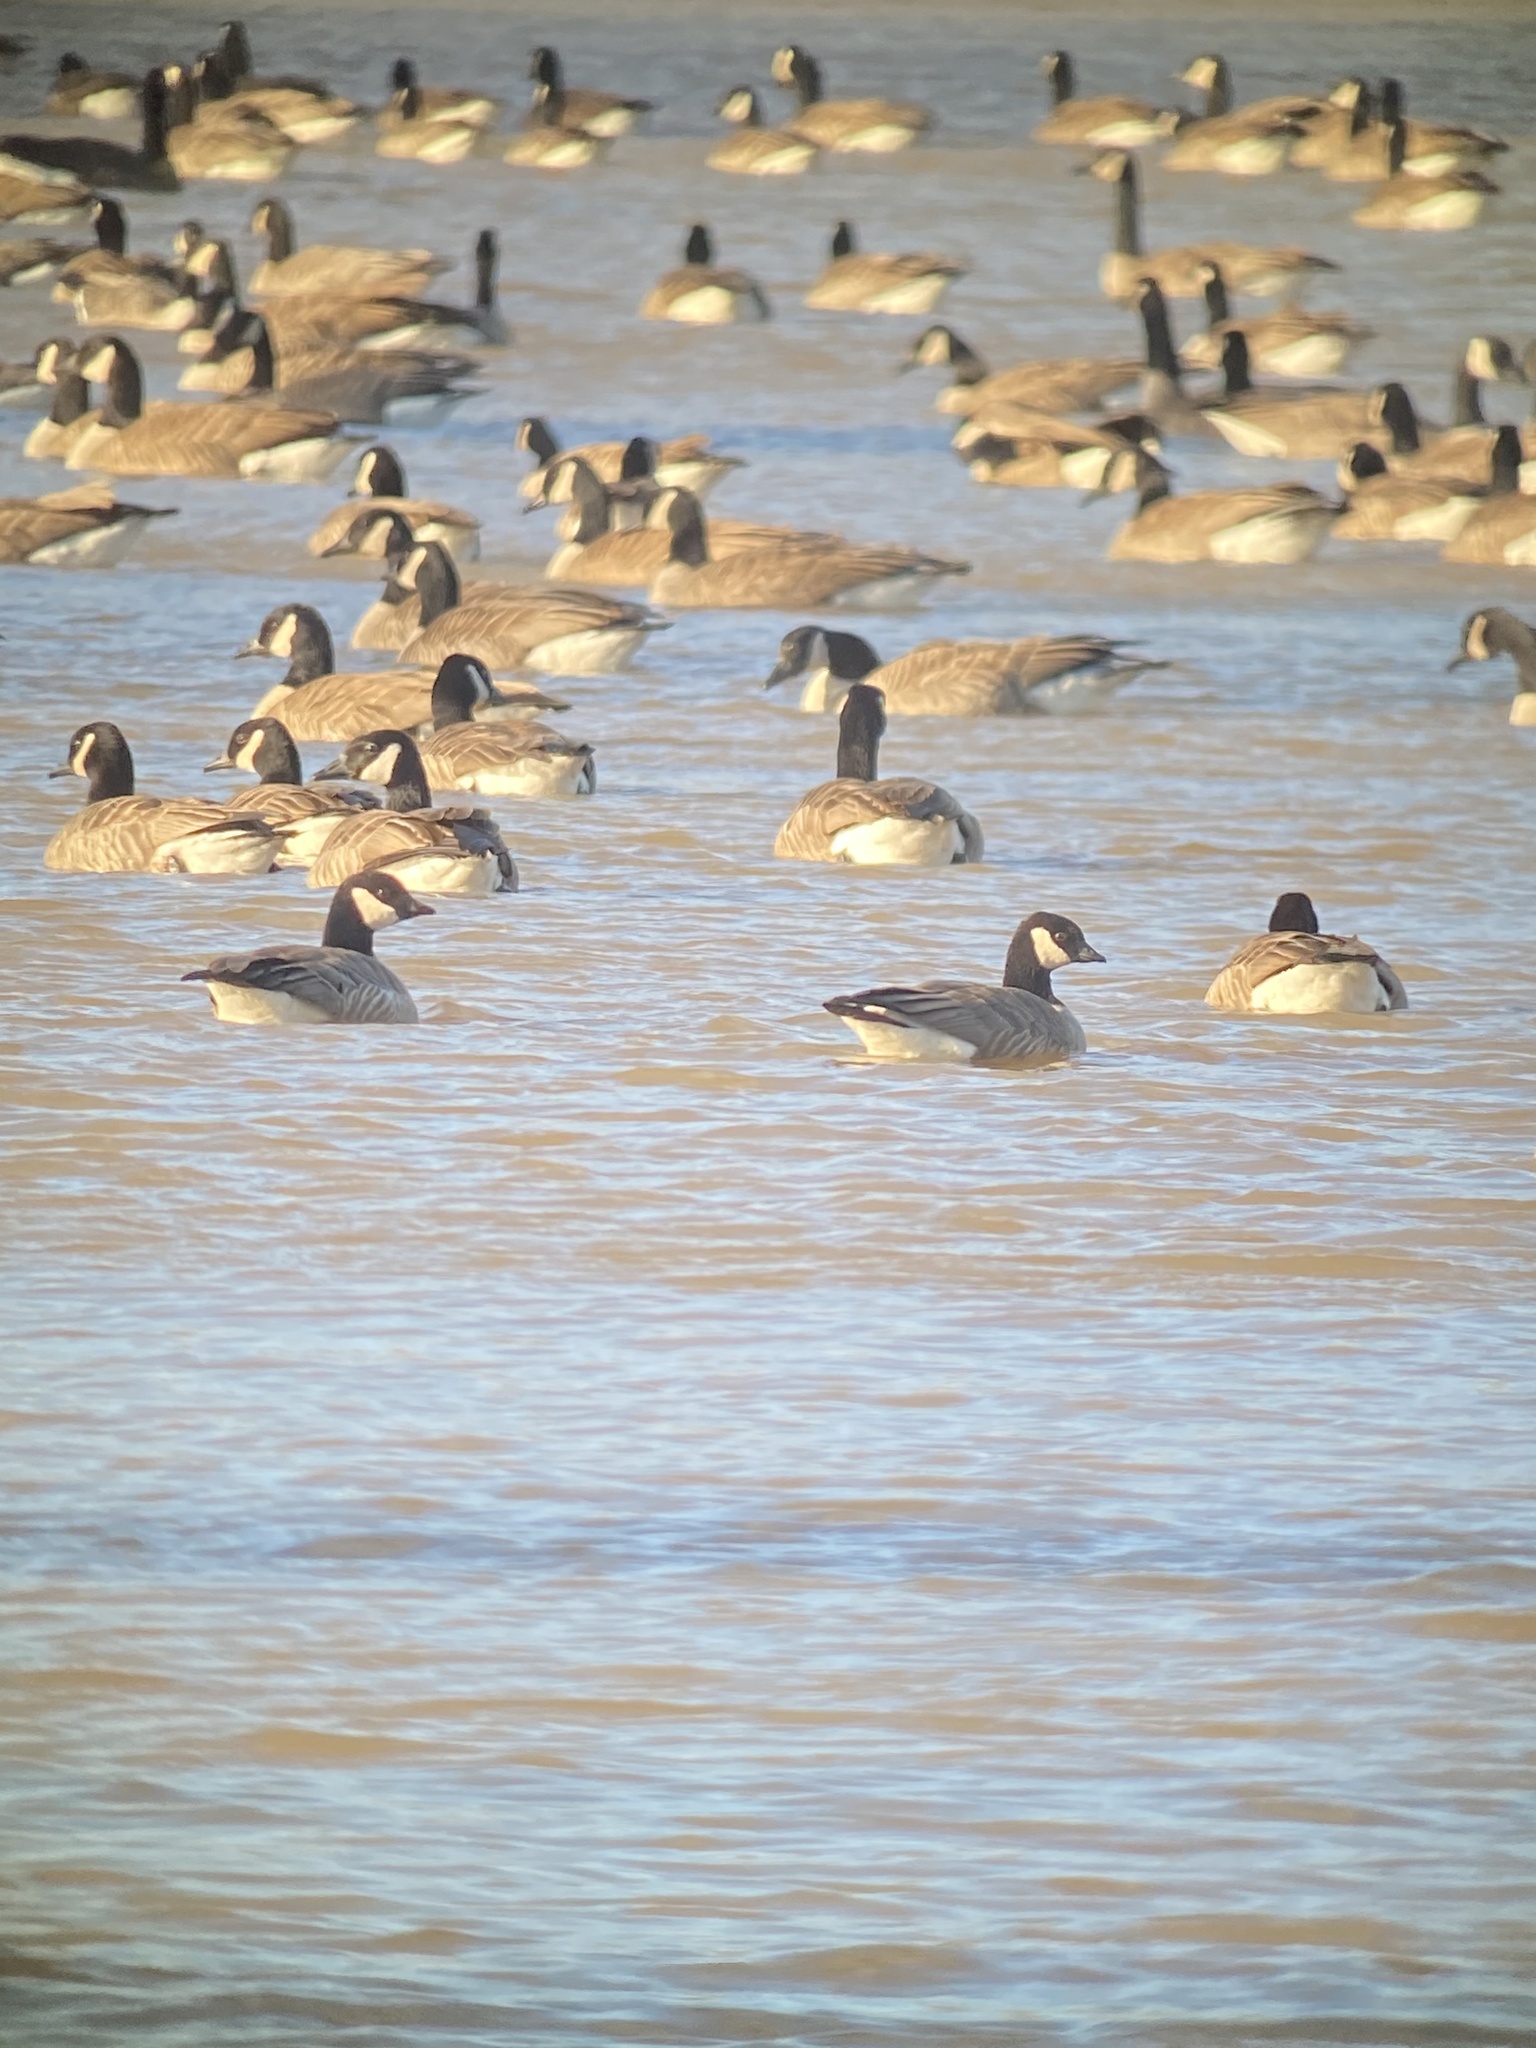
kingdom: Animalia
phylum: Chordata
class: Aves
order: Anseriformes
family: Anatidae
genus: Branta
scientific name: Branta hutchinsii
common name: Cackling goose
